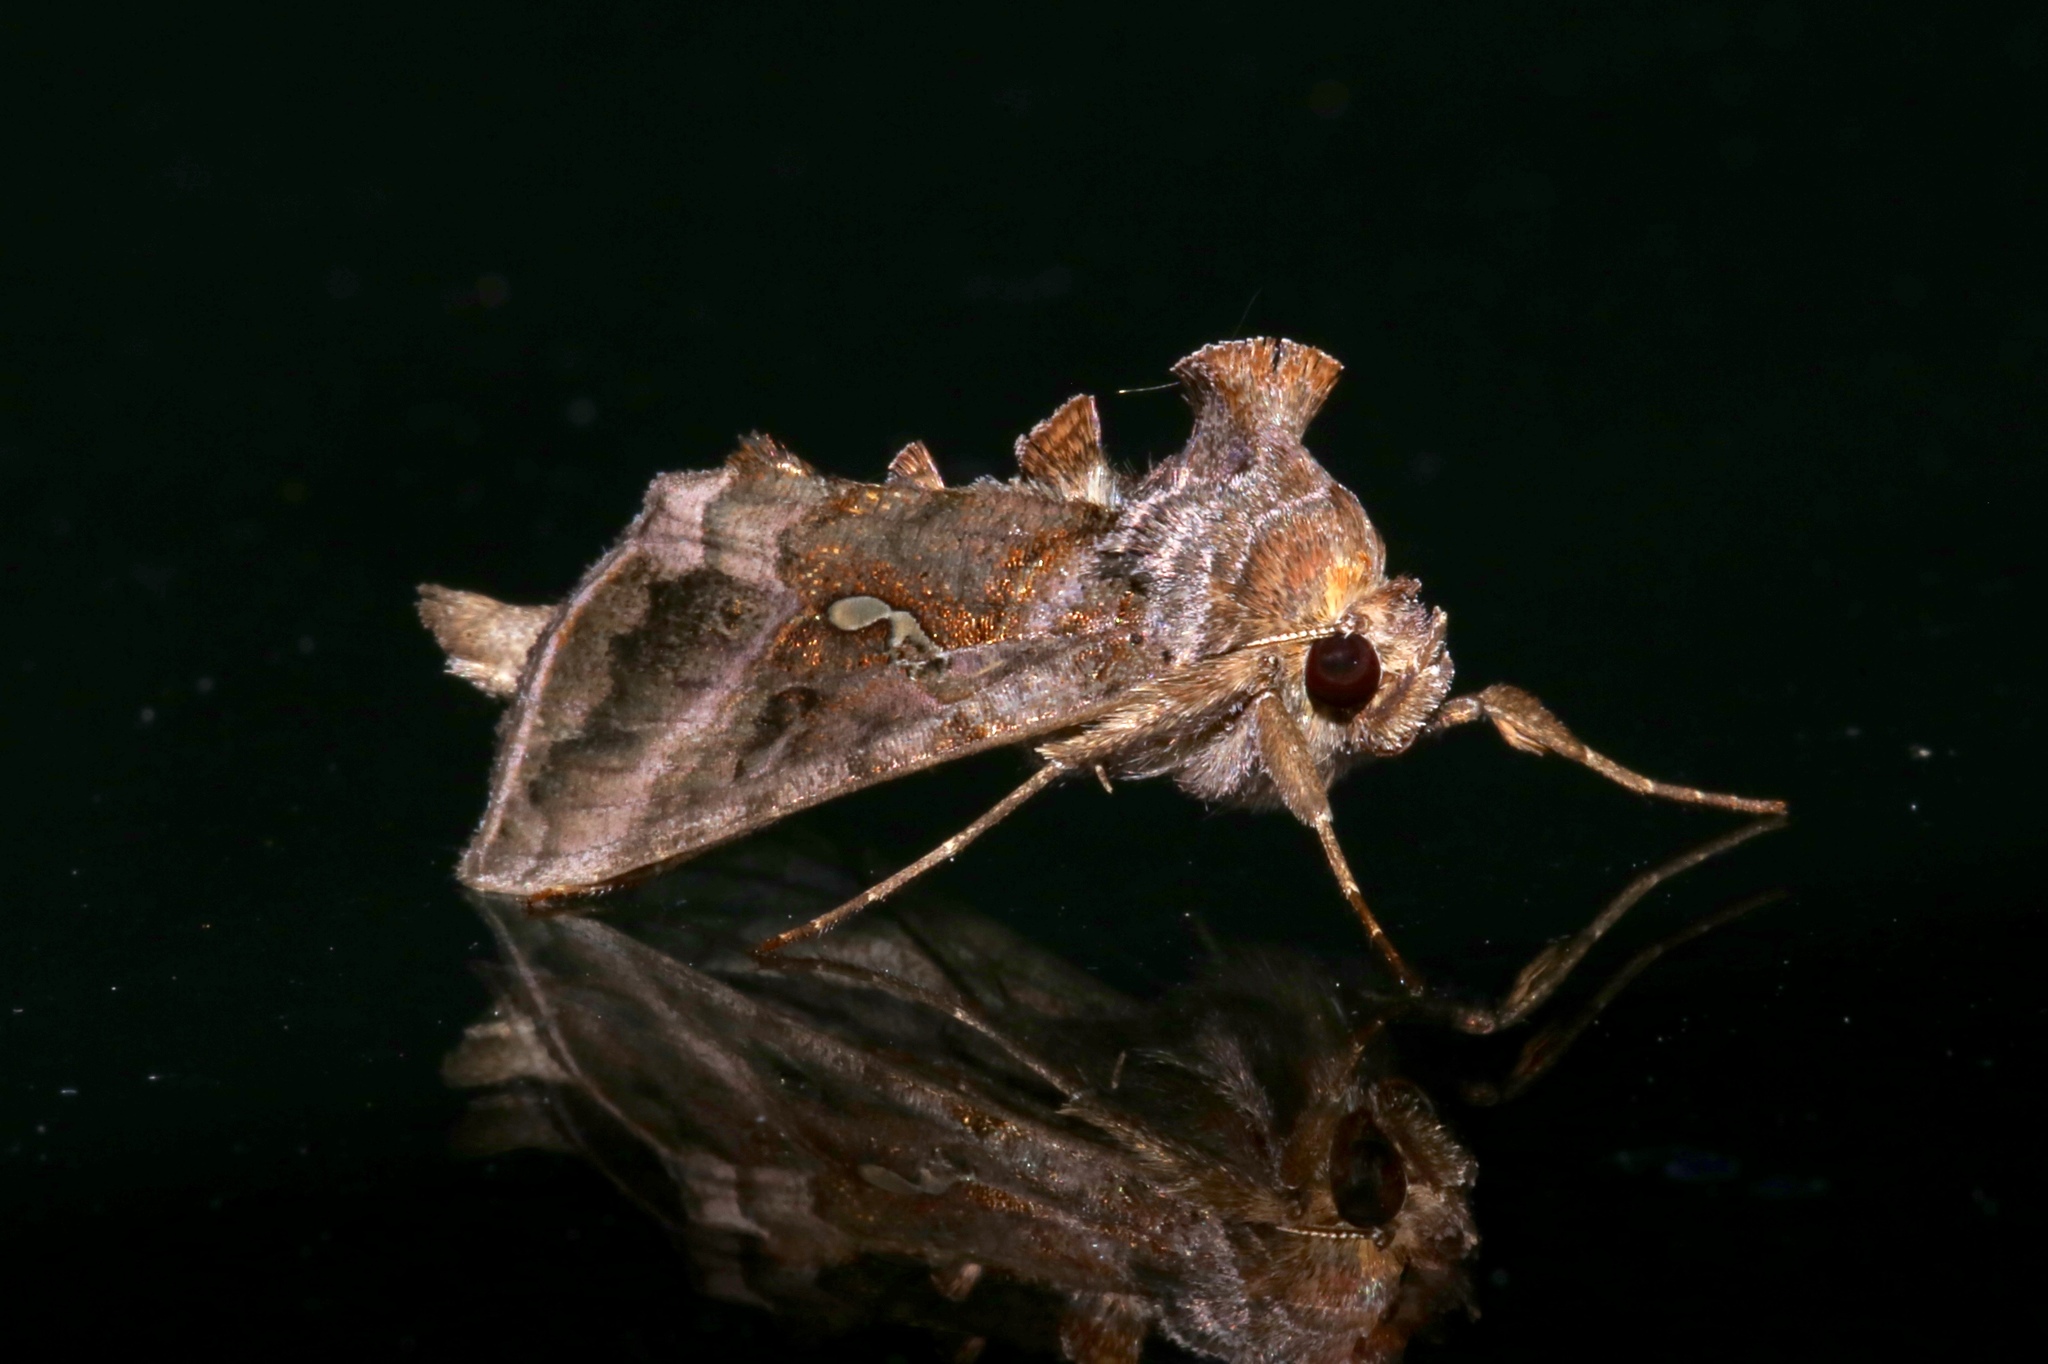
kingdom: Animalia
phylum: Arthropoda
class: Insecta
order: Lepidoptera
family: Noctuidae
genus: Autographa
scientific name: Autographa precationis
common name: Common looper moth
